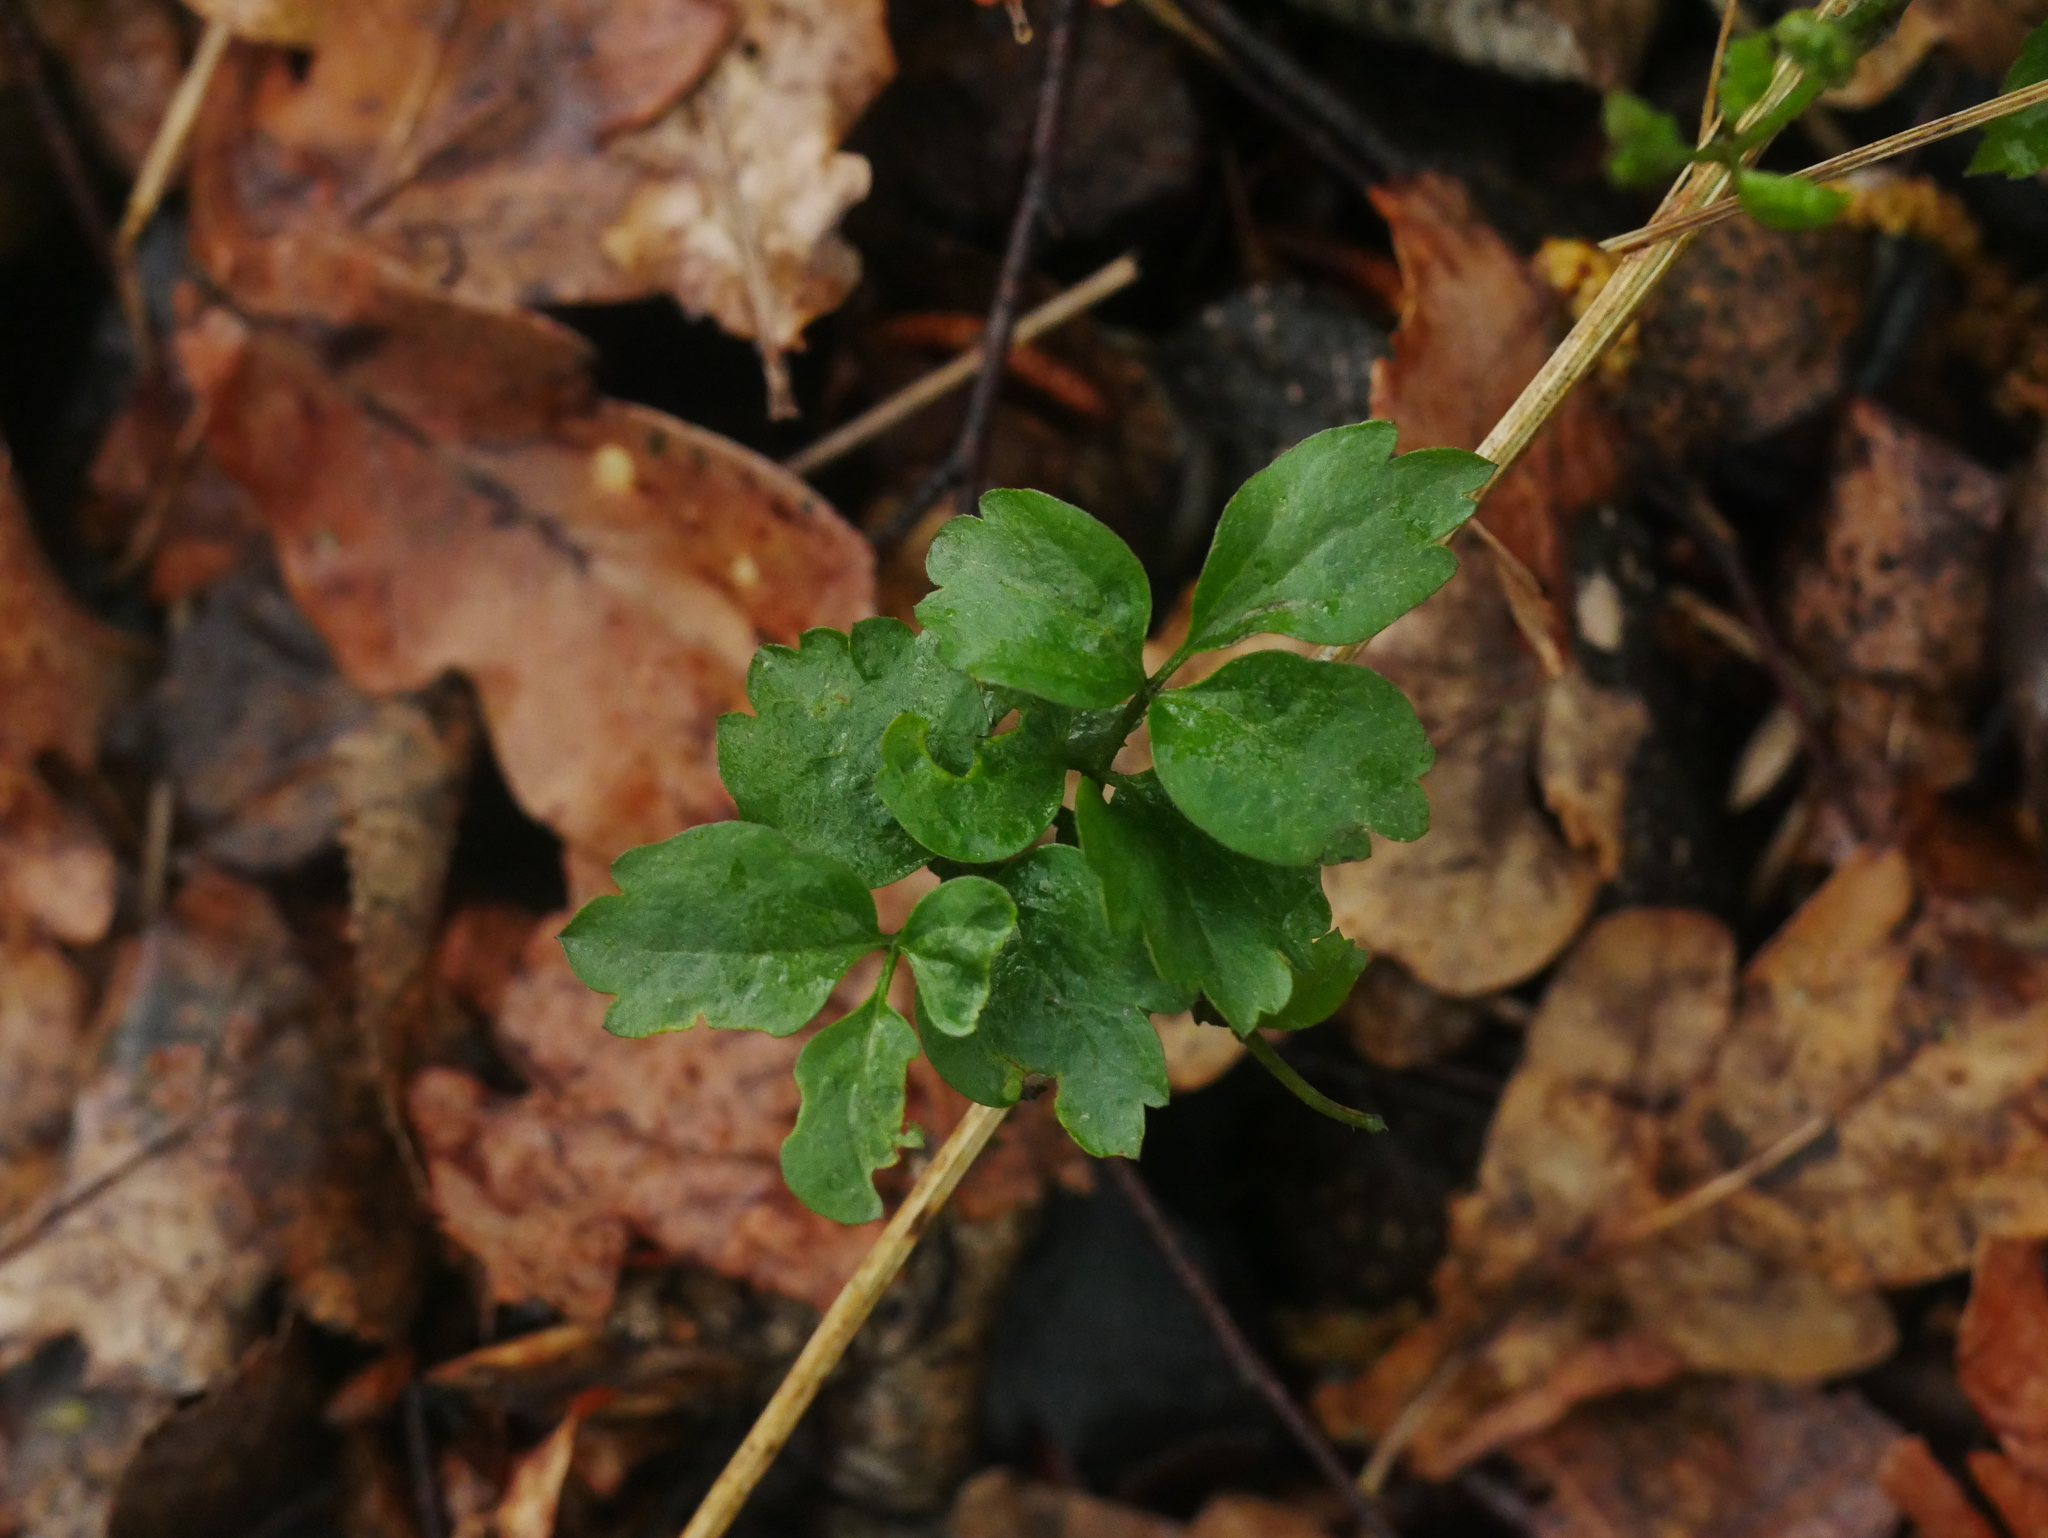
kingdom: Plantae
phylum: Tracheophyta
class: Magnoliopsida
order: Ranunculales
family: Ranunculaceae
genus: Clematis
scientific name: Clematis vitalba
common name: Evergreen clematis
